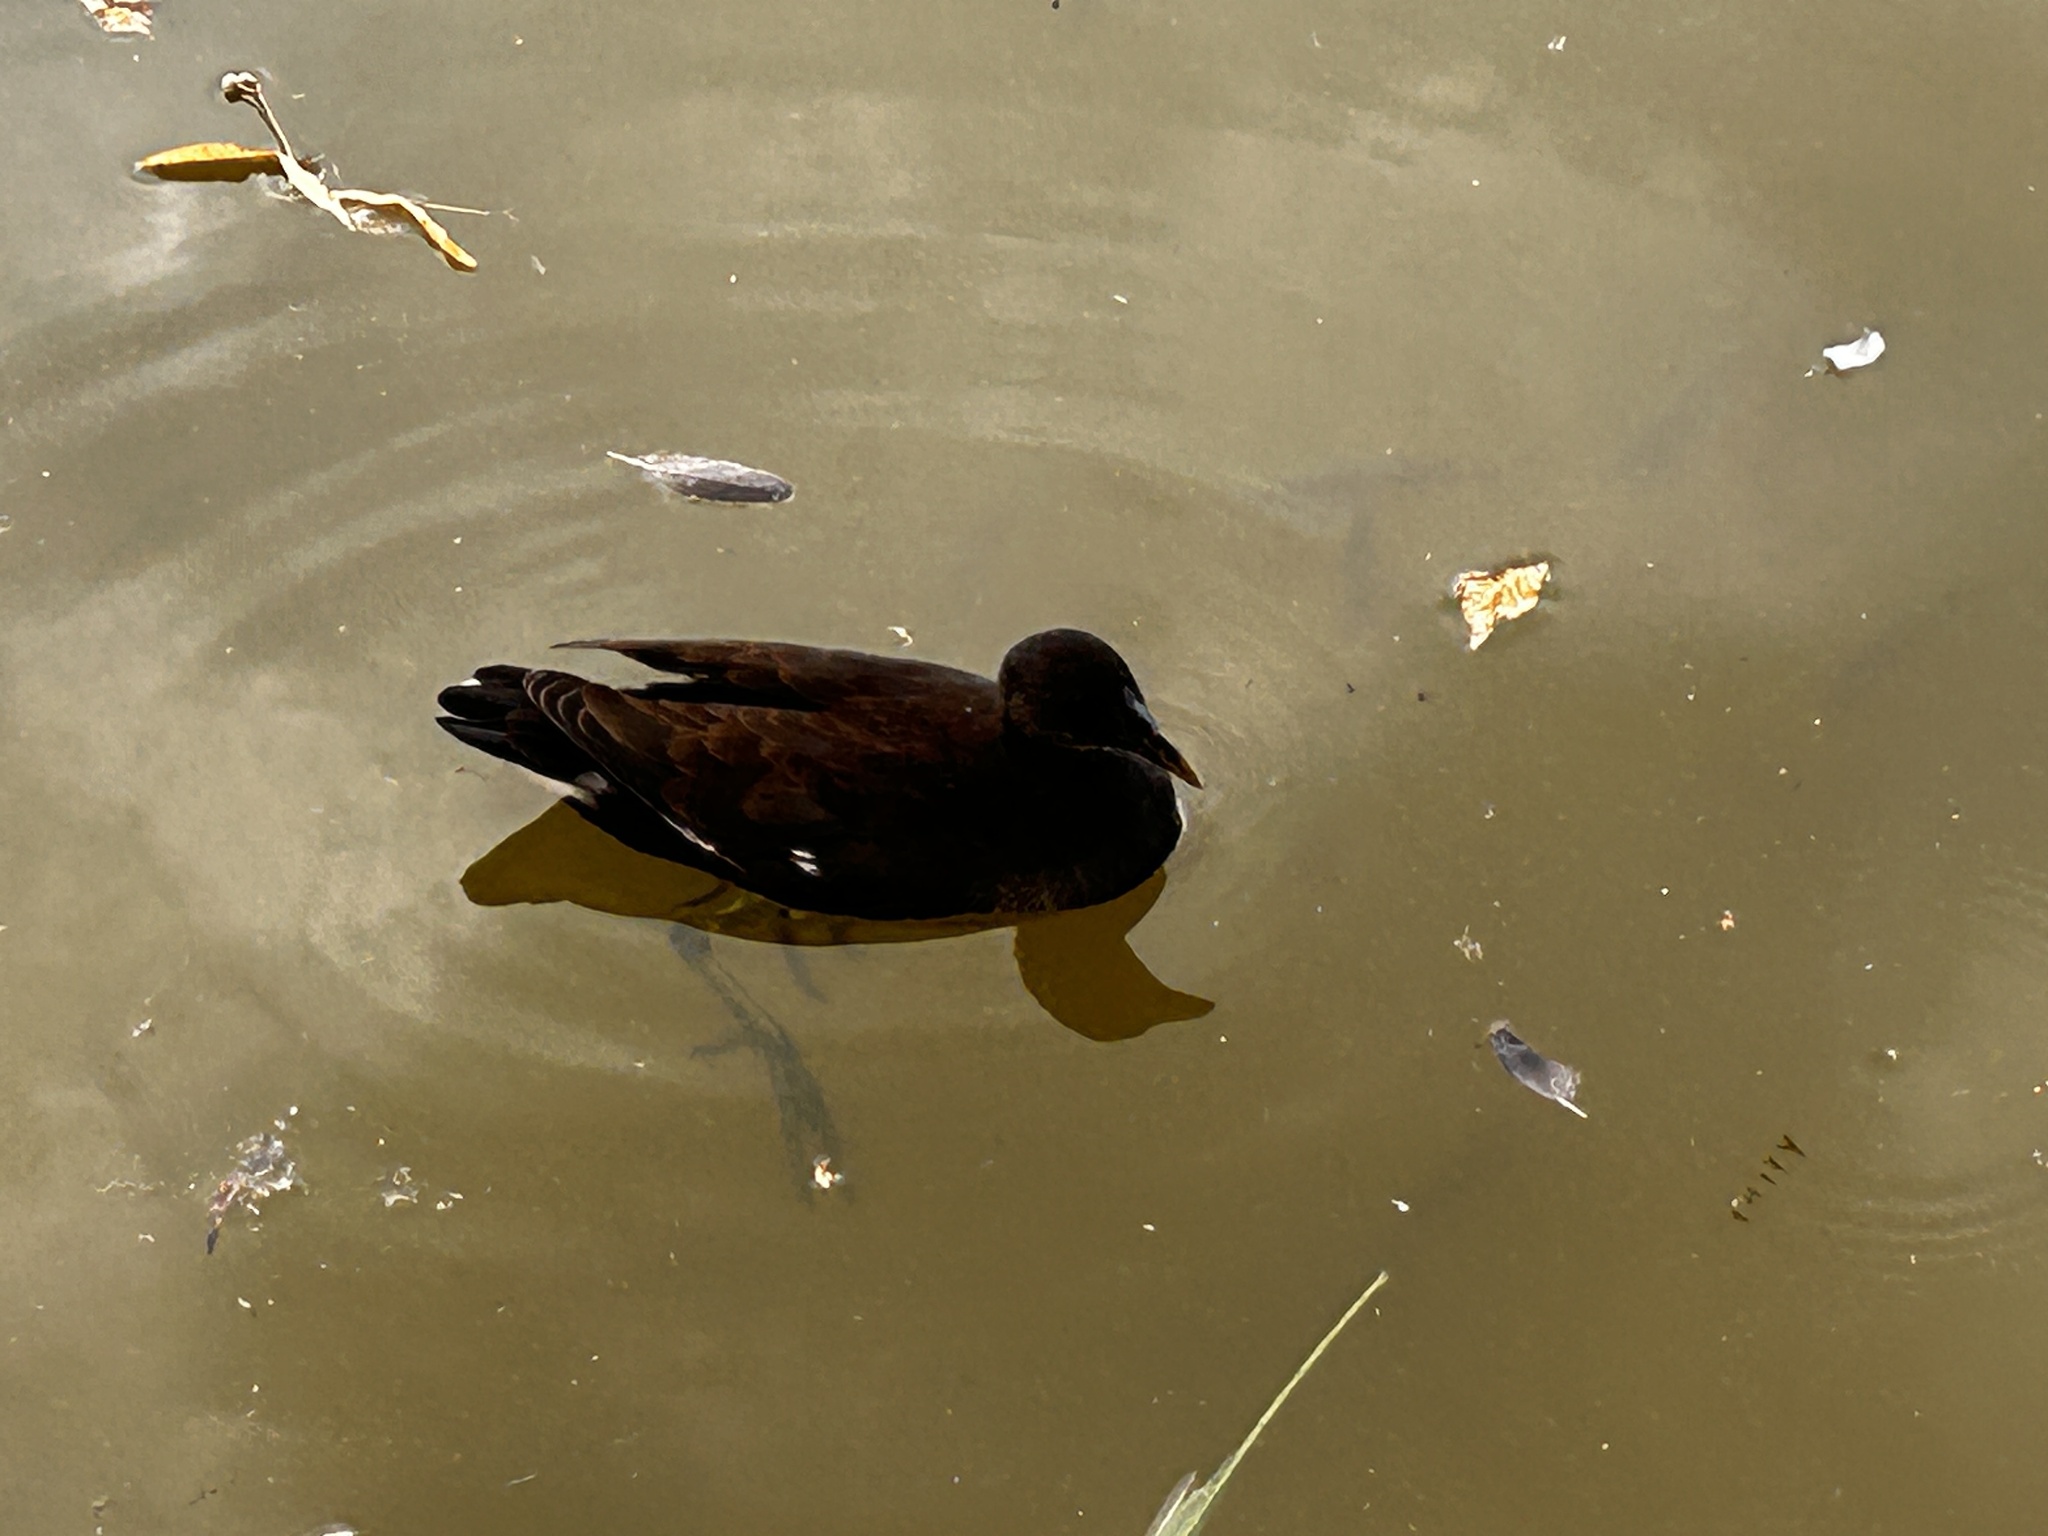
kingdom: Animalia
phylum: Chordata
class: Aves
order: Gruiformes
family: Rallidae
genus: Gallinula
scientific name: Gallinula chloropus
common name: Common moorhen
